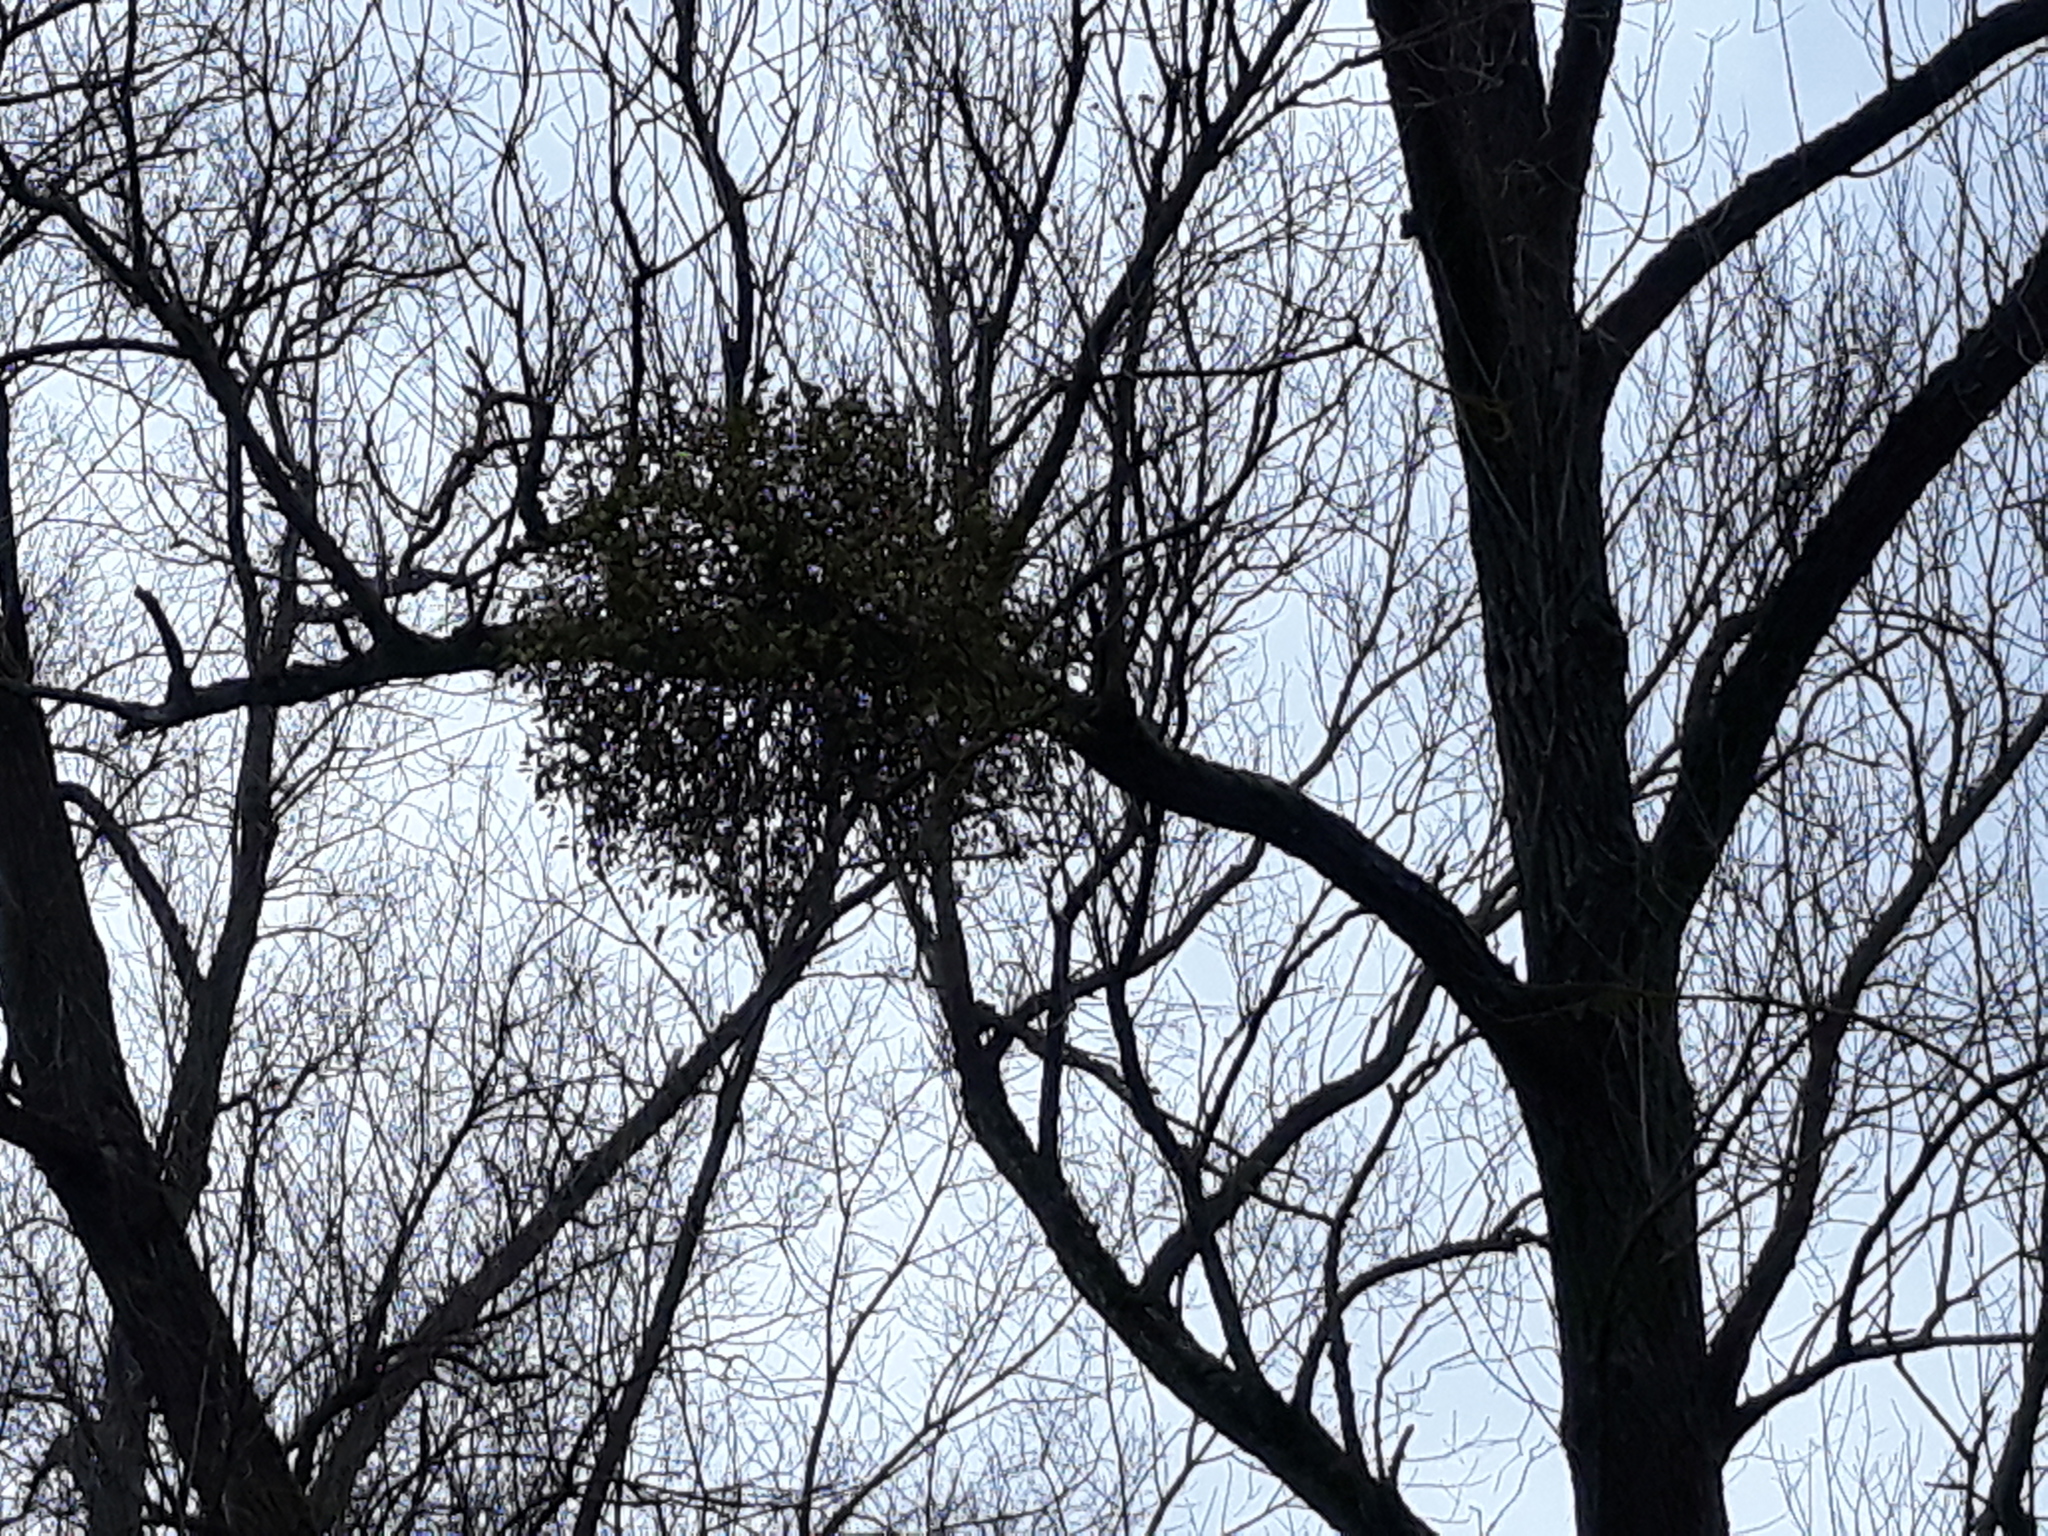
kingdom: Plantae
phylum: Tracheophyta
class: Magnoliopsida
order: Santalales
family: Viscaceae
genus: Viscum
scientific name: Viscum album
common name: Mistletoe
